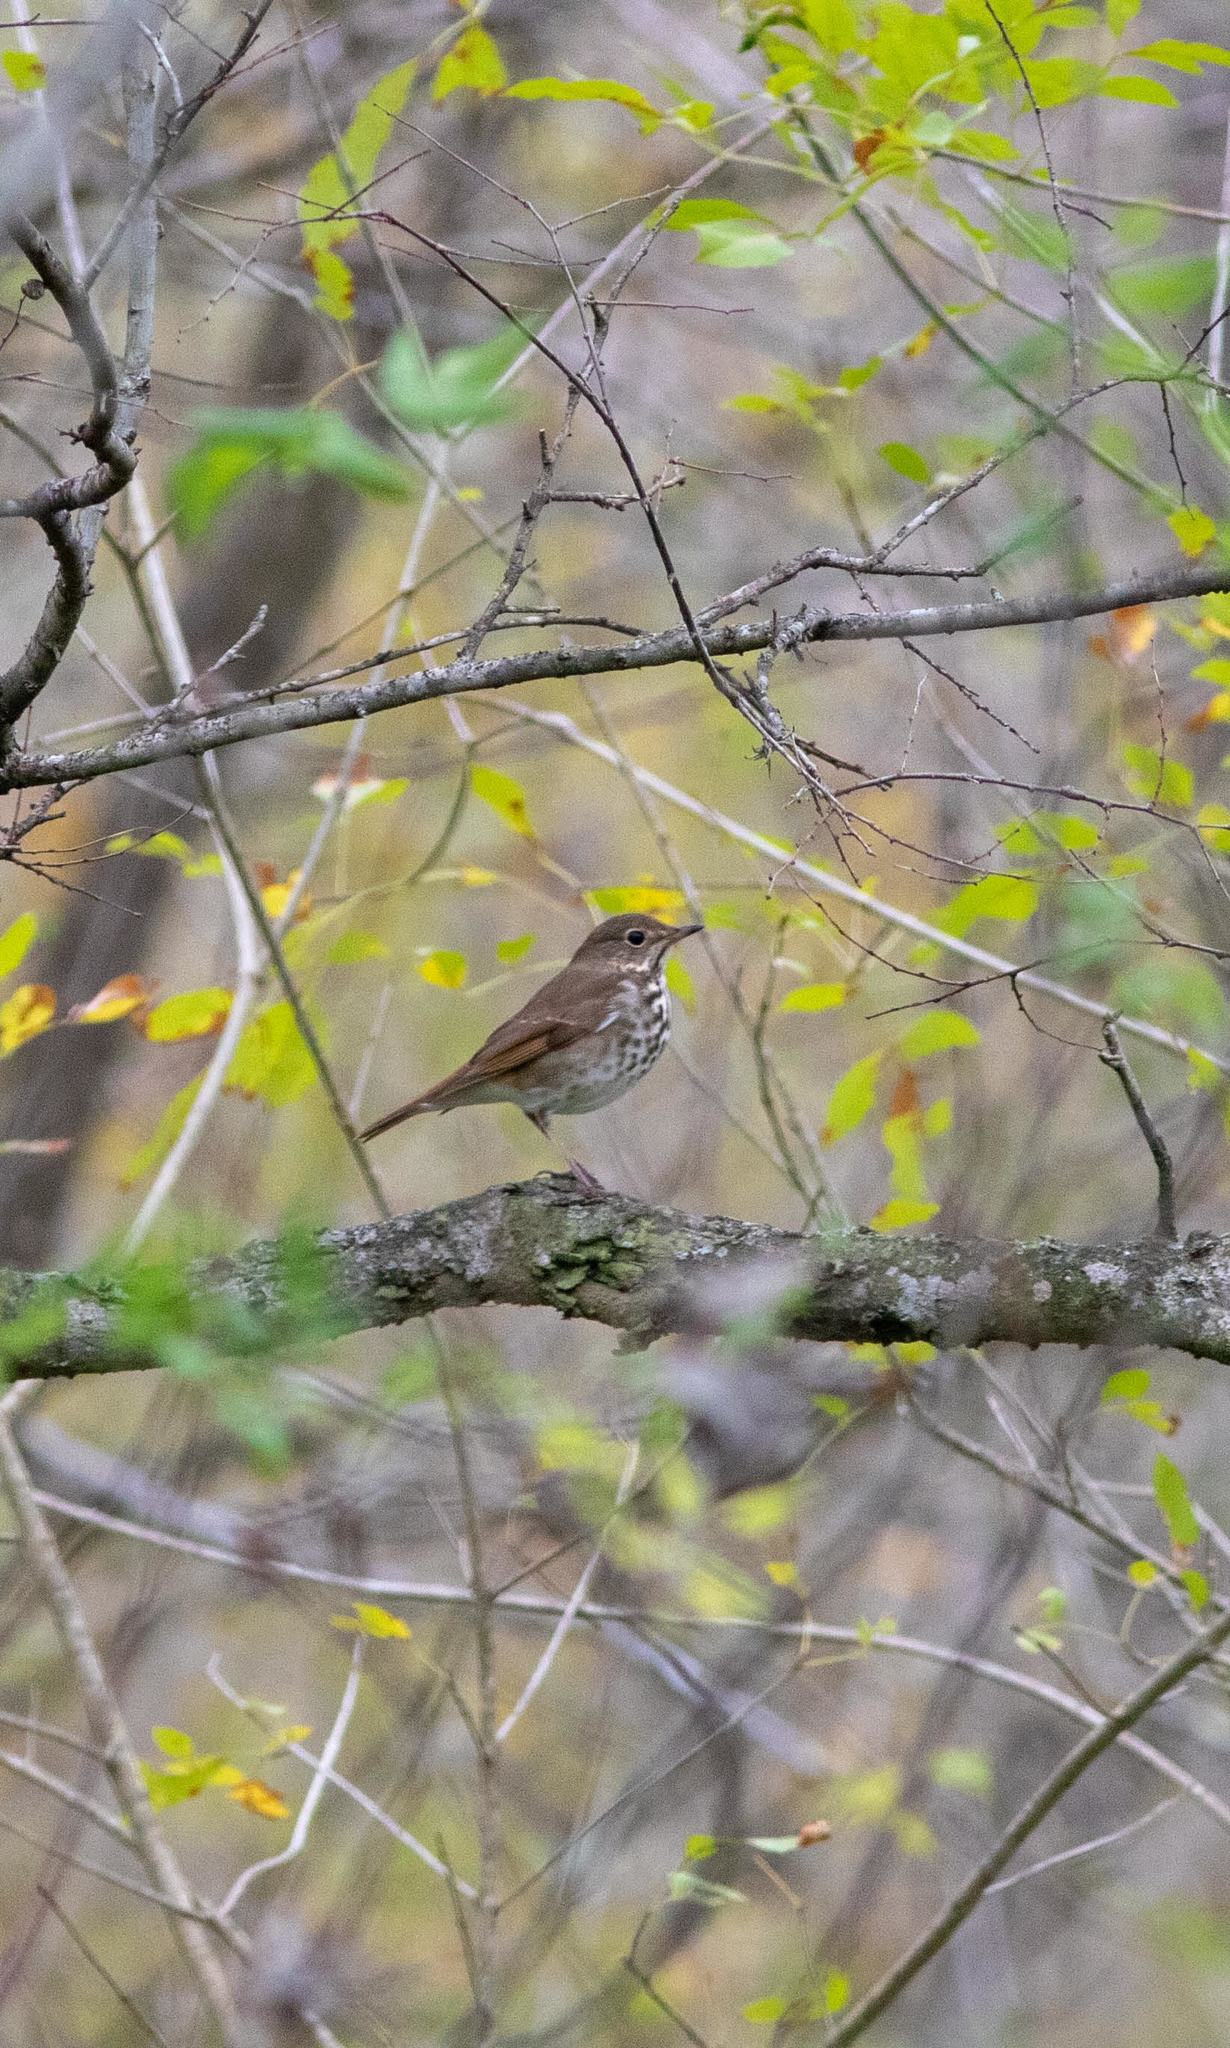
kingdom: Animalia
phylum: Chordata
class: Aves
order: Passeriformes
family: Turdidae
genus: Catharus
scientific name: Catharus guttatus
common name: Hermit thrush
